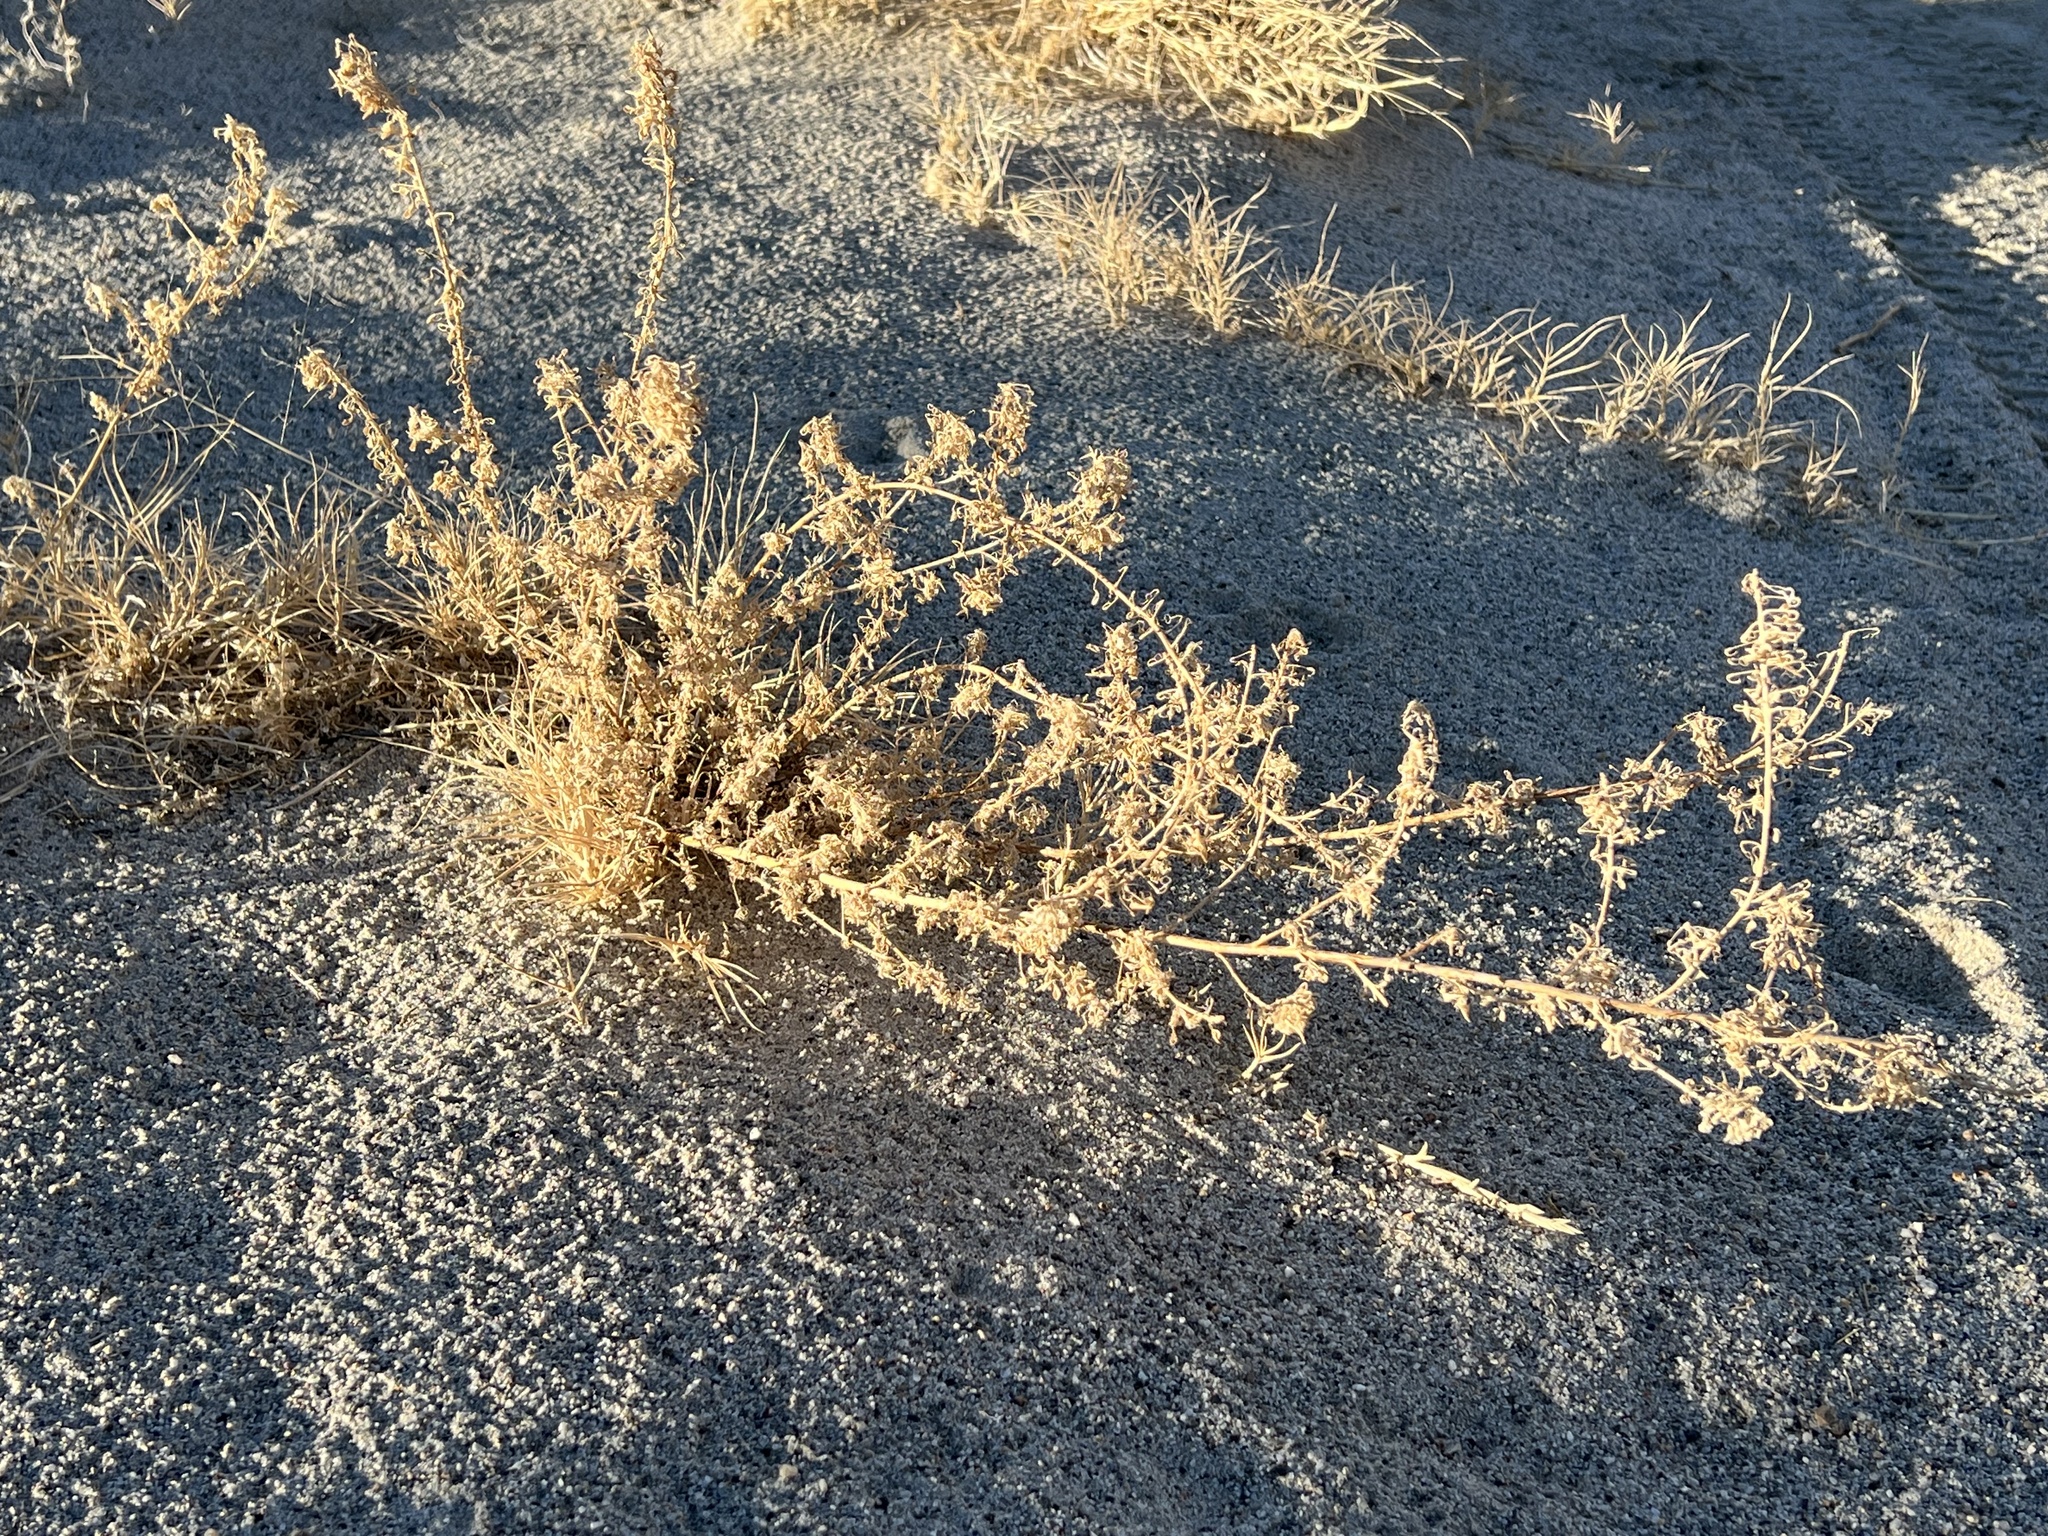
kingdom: Plantae
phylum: Tracheophyta
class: Magnoliopsida
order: Brassicales
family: Cleomaceae
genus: Cleomella
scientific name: Cleomella obtusifolia
